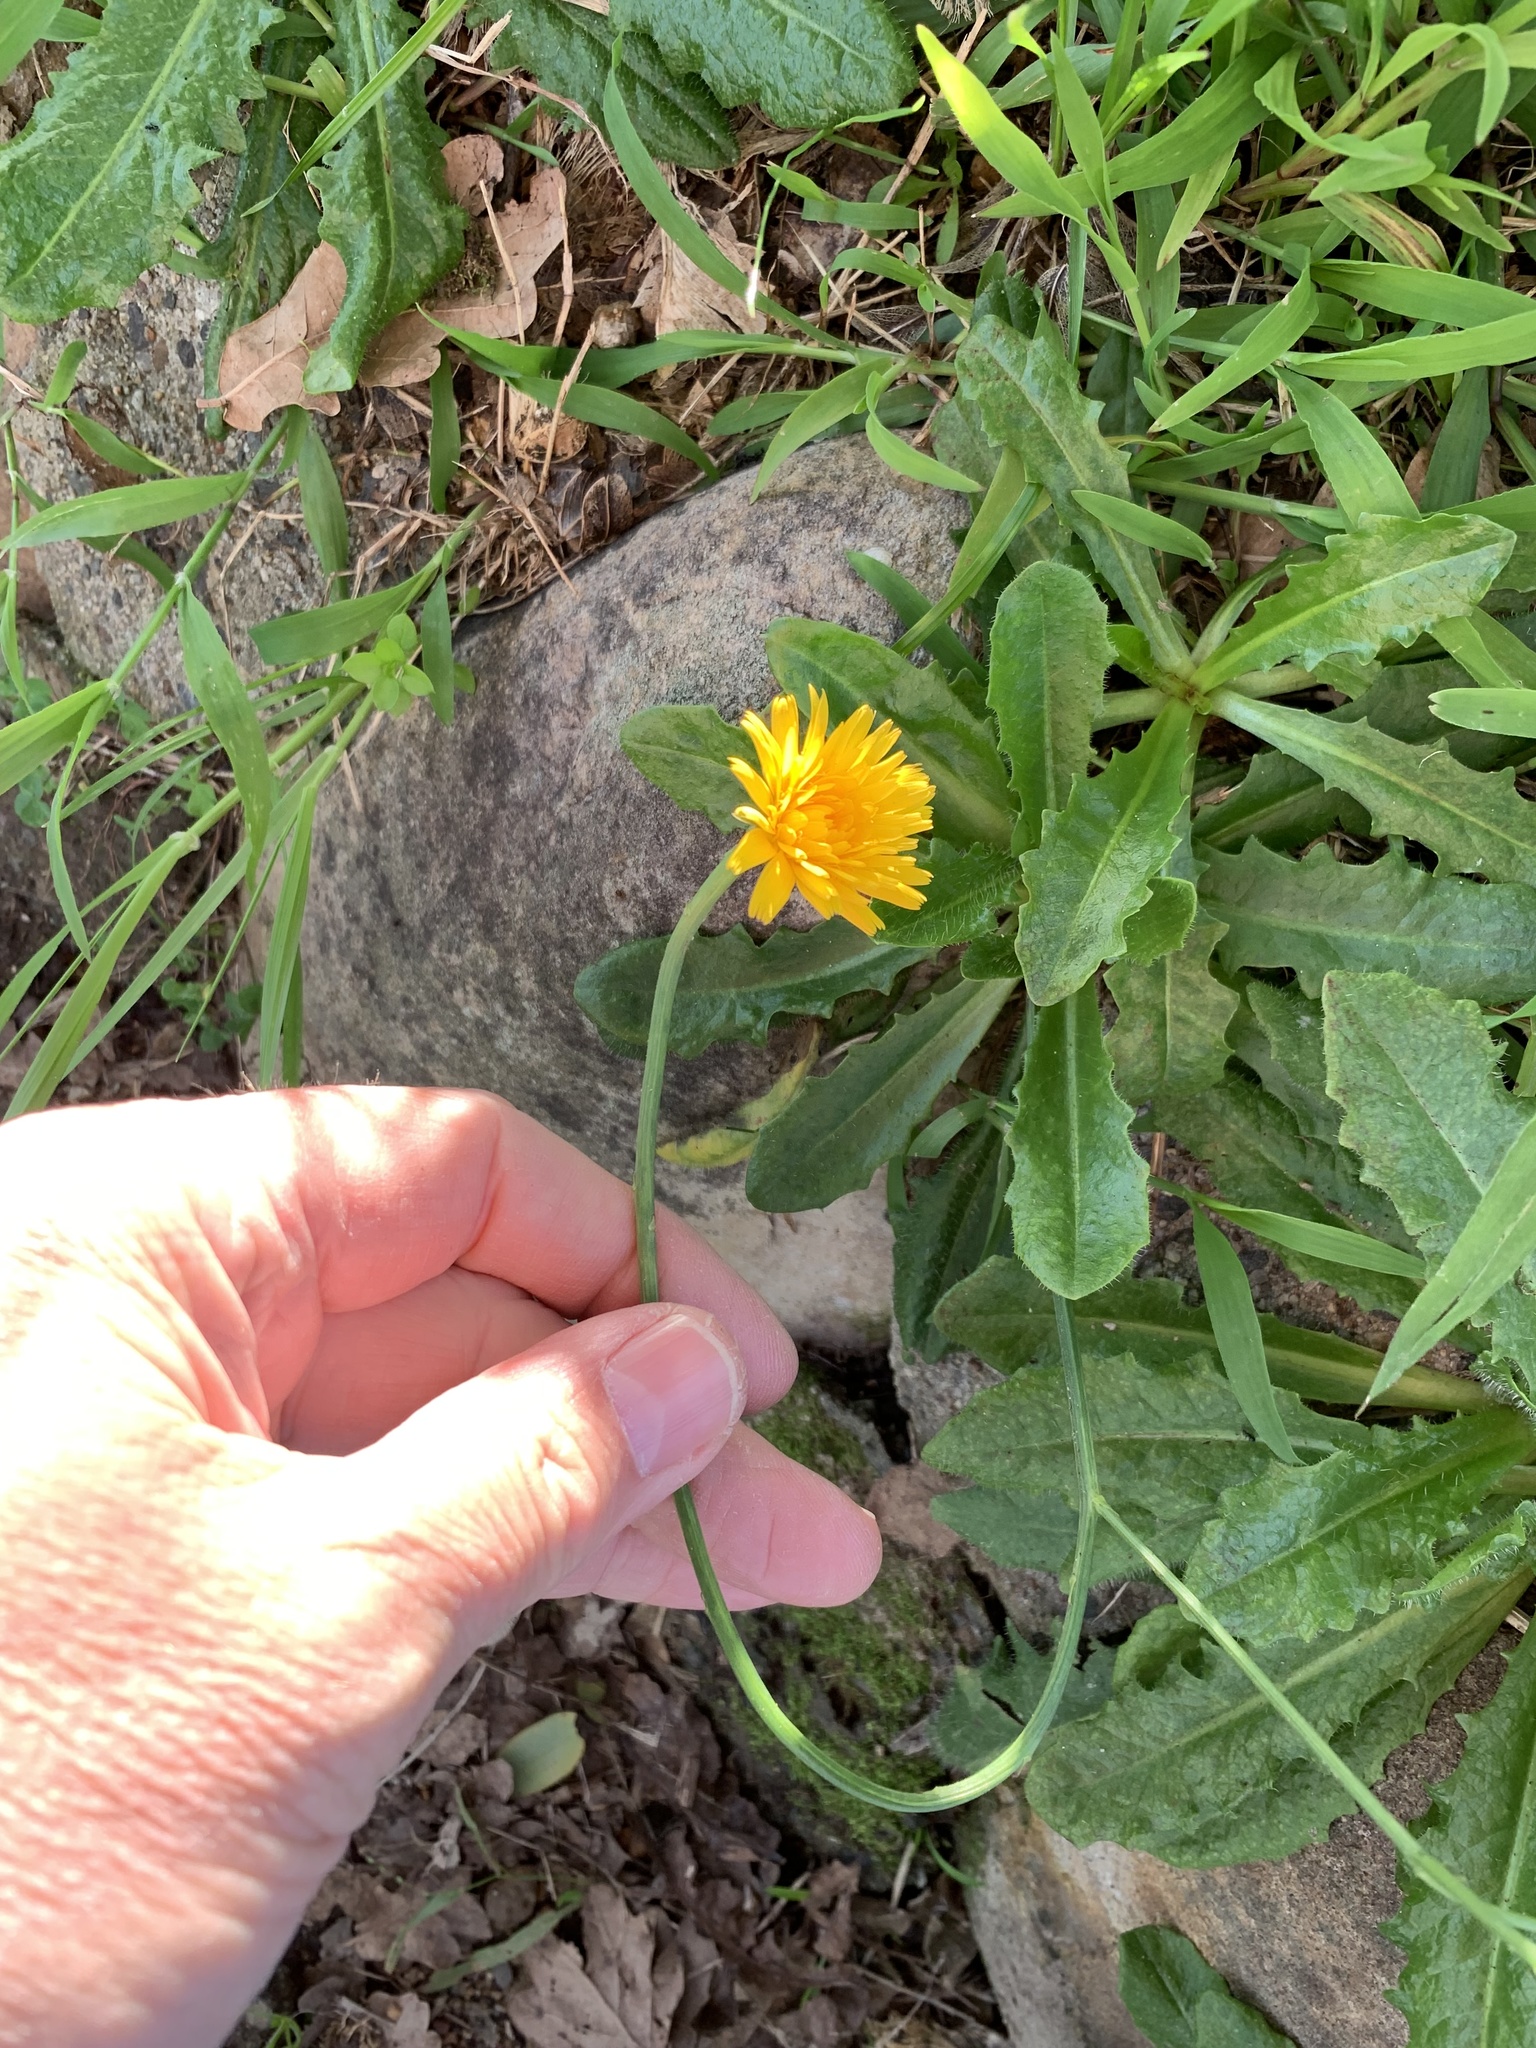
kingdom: Plantae
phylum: Tracheophyta
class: Magnoliopsida
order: Asterales
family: Asteraceae
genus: Hypochaeris
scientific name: Hypochaeris radicata
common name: Flatweed
